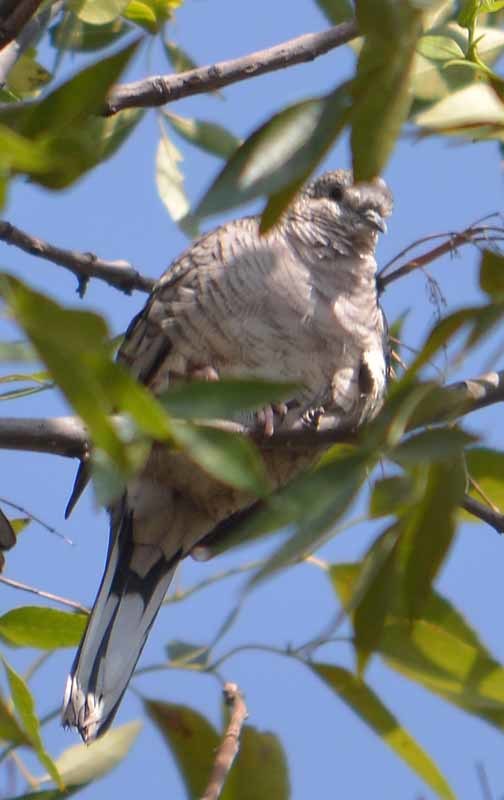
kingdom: Animalia
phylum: Chordata
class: Aves
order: Columbiformes
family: Columbidae
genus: Columbina
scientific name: Columbina inca
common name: Inca dove
